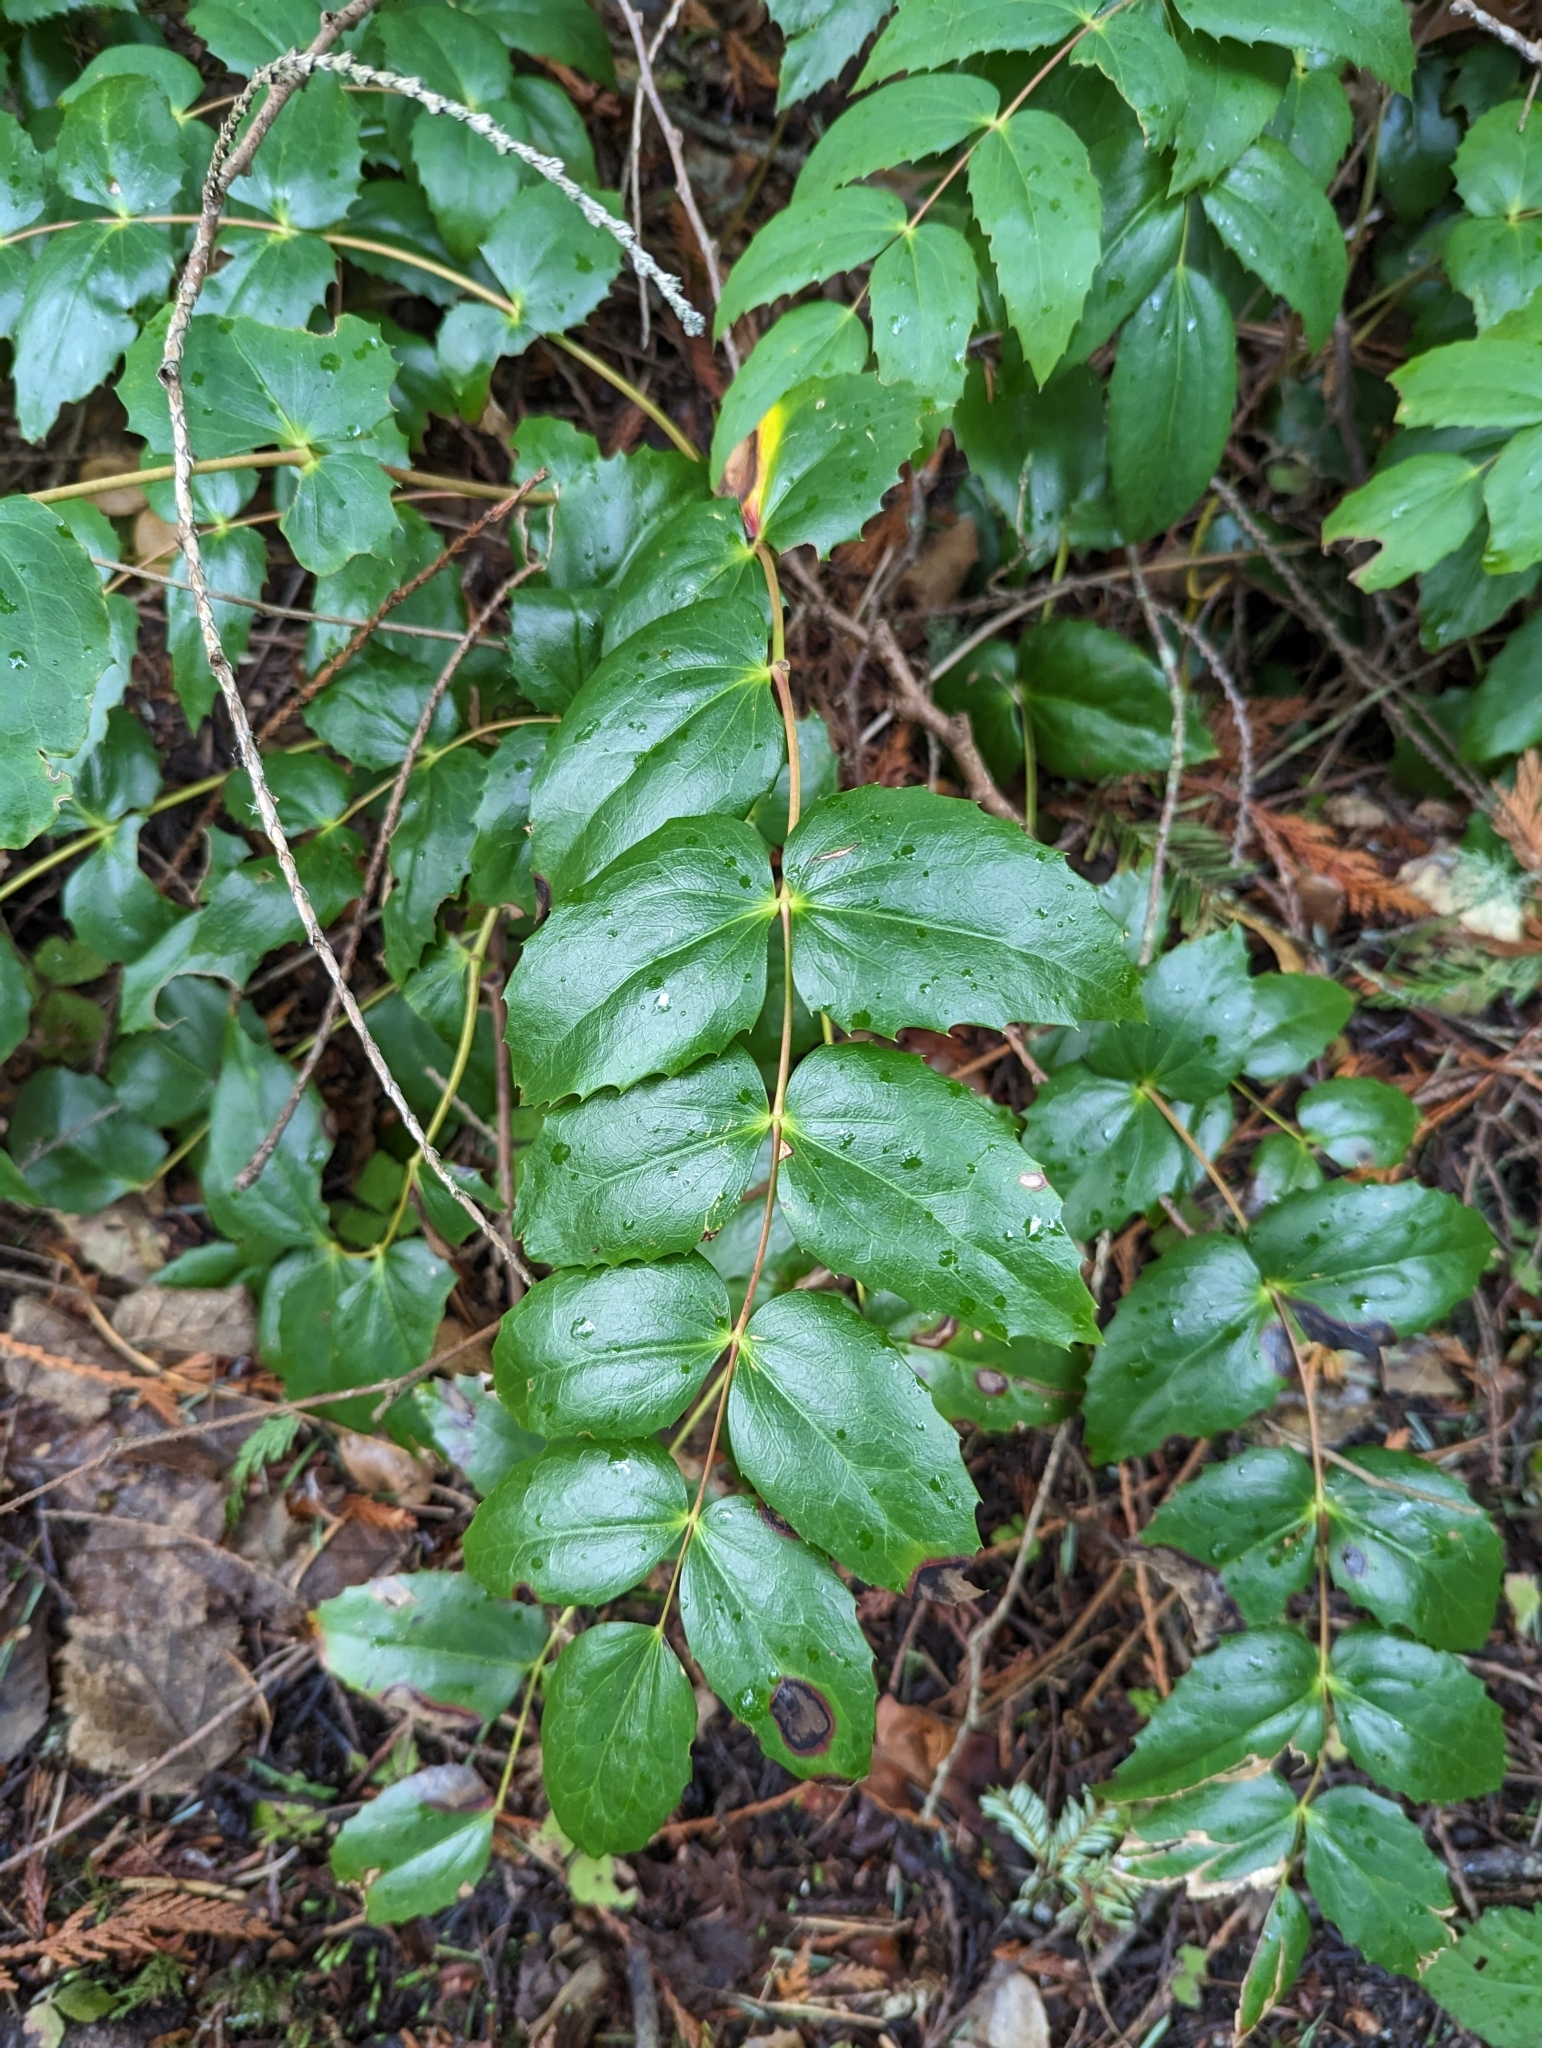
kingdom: Plantae
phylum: Tracheophyta
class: Magnoliopsida
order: Ranunculales
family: Berberidaceae
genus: Mahonia
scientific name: Mahonia nervosa
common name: Cascade oregon-grape
